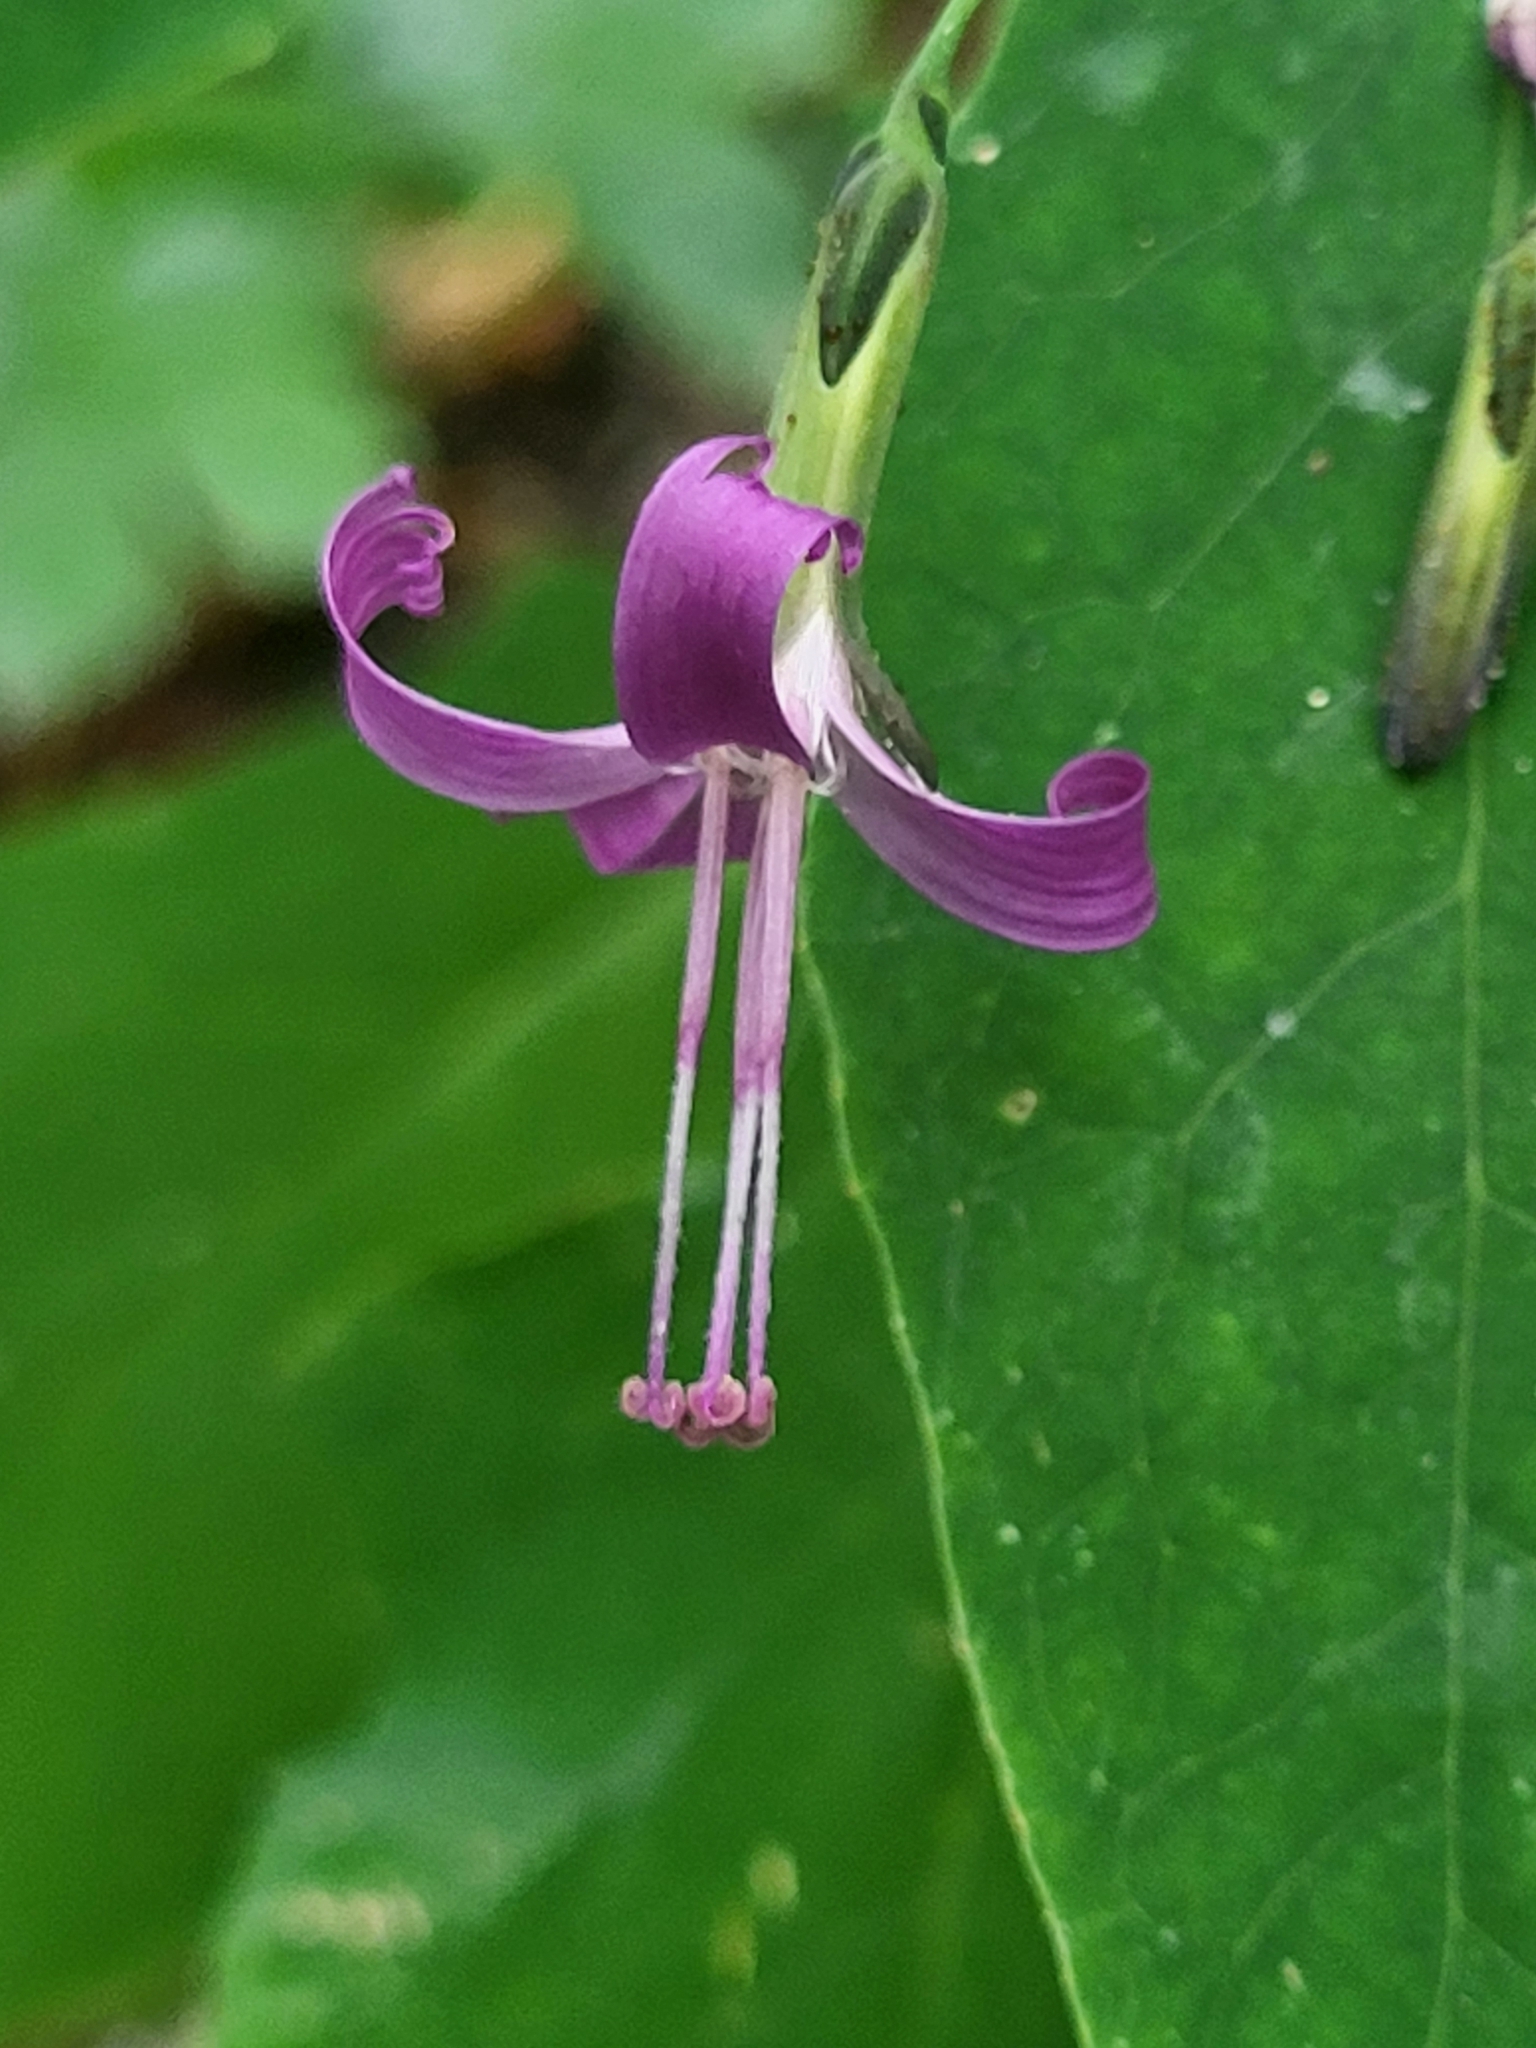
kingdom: Plantae
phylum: Tracheophyta
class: Magnoliopsida
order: Asterales
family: Asteraceae
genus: Prenanthes
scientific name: Prenanthes purpurea
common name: Purple lettuce
